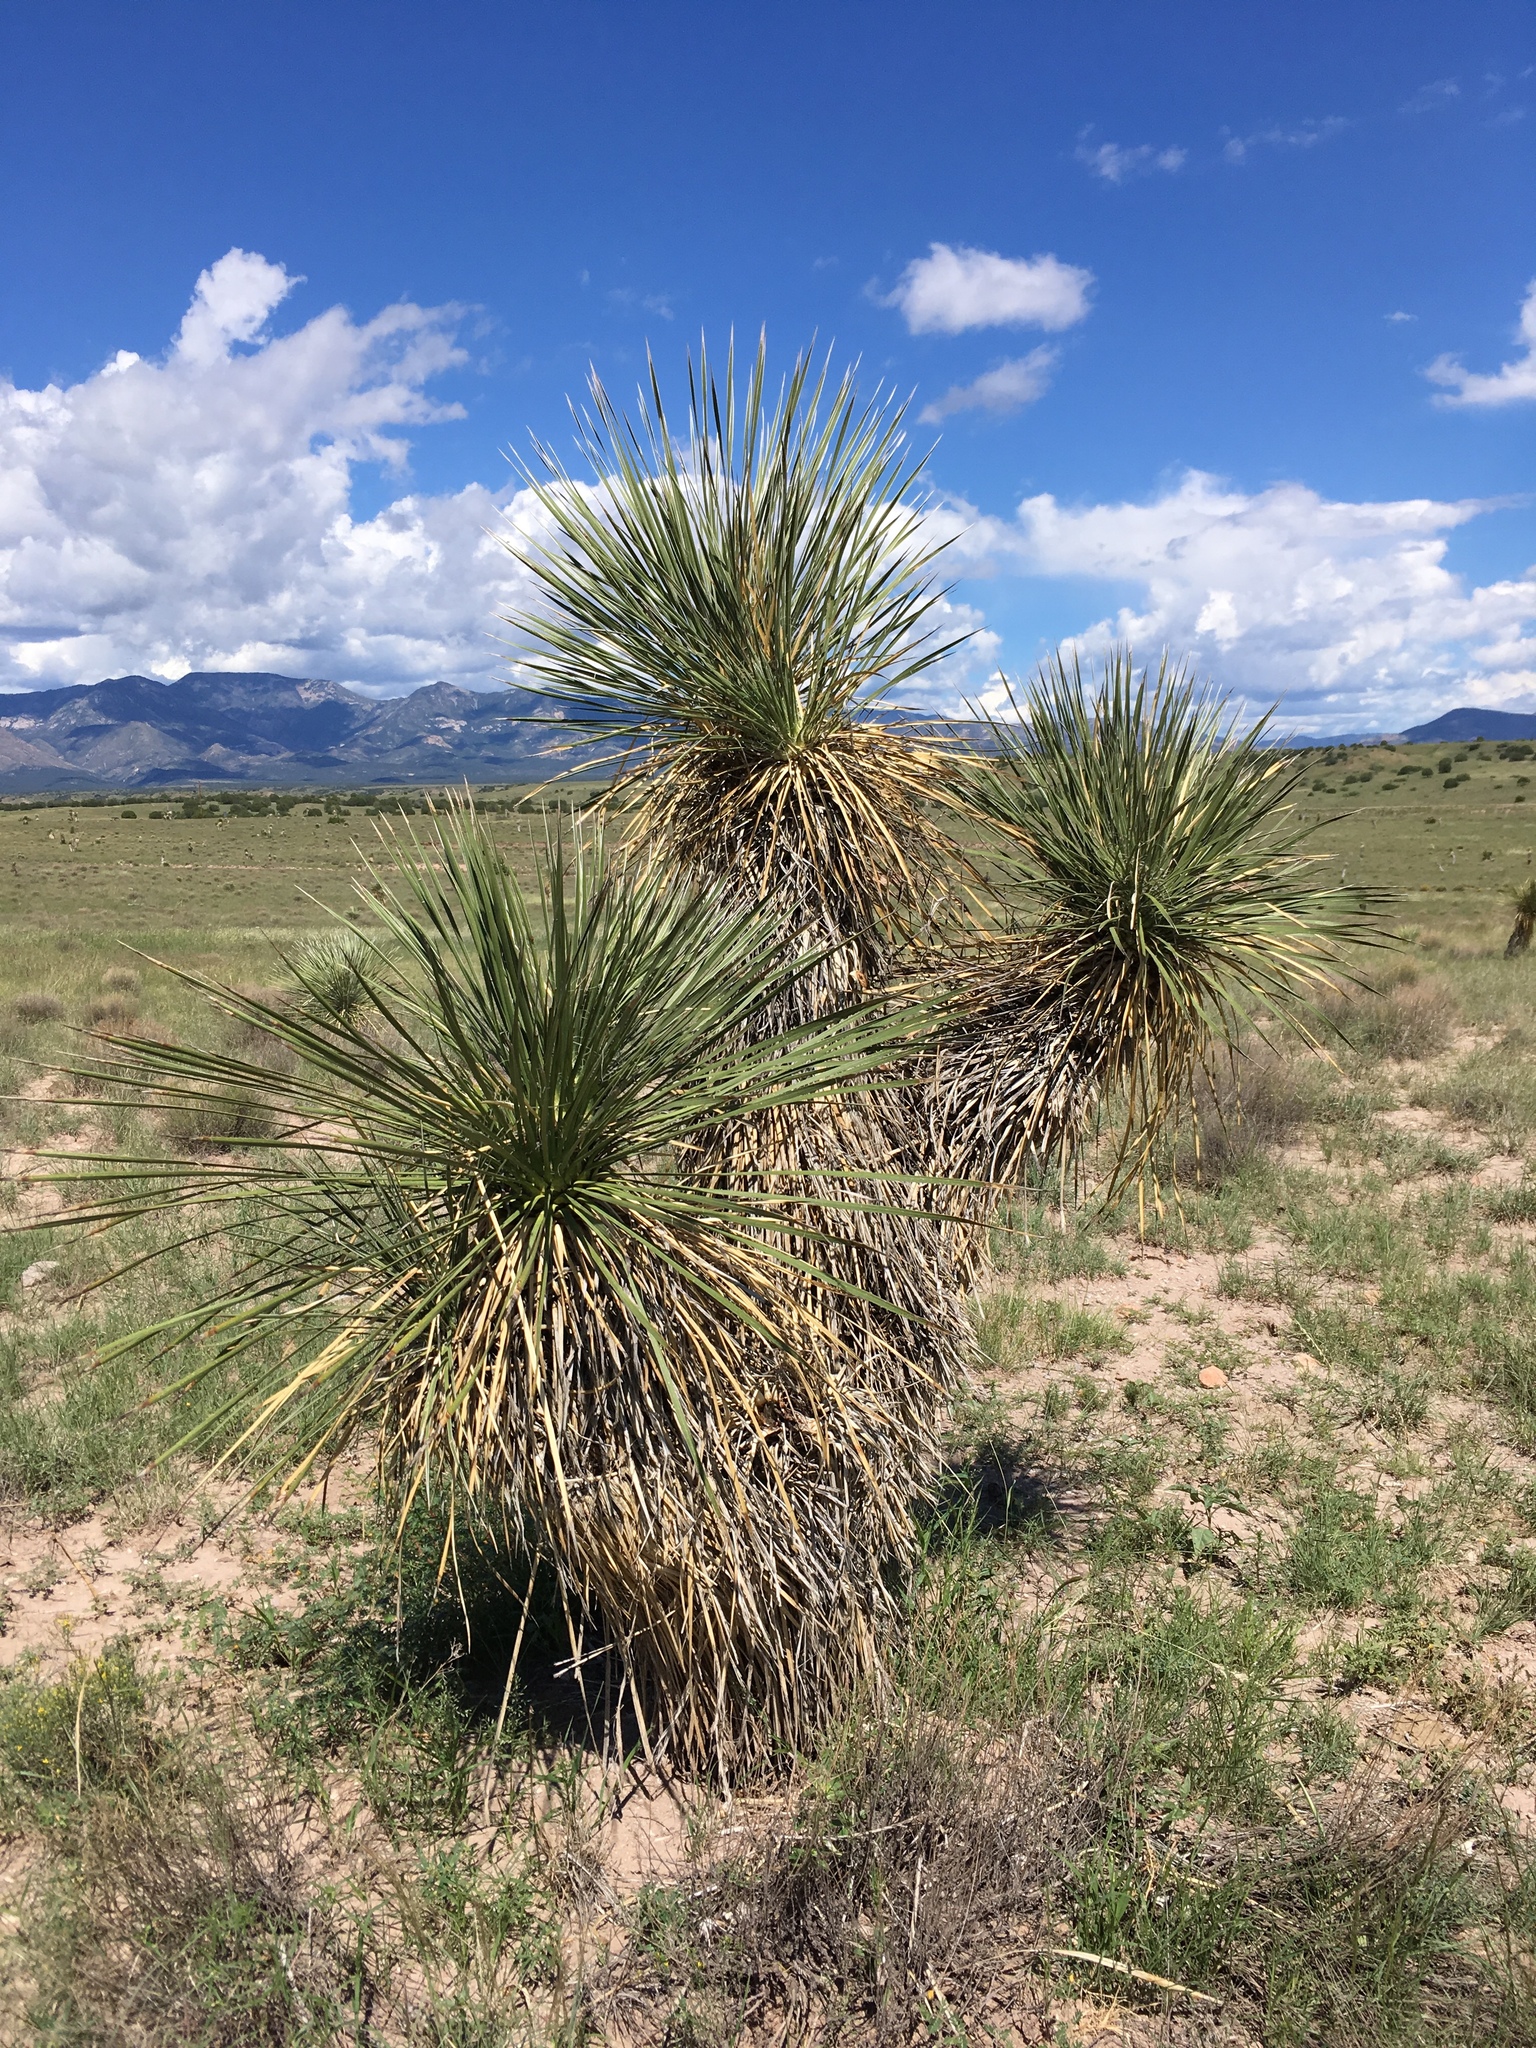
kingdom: Plantae
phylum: Tracheophyta
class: Liliopsida
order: Asparagales
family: Asparagaceae
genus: Yucca
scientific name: Yucca elata
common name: Palmella
